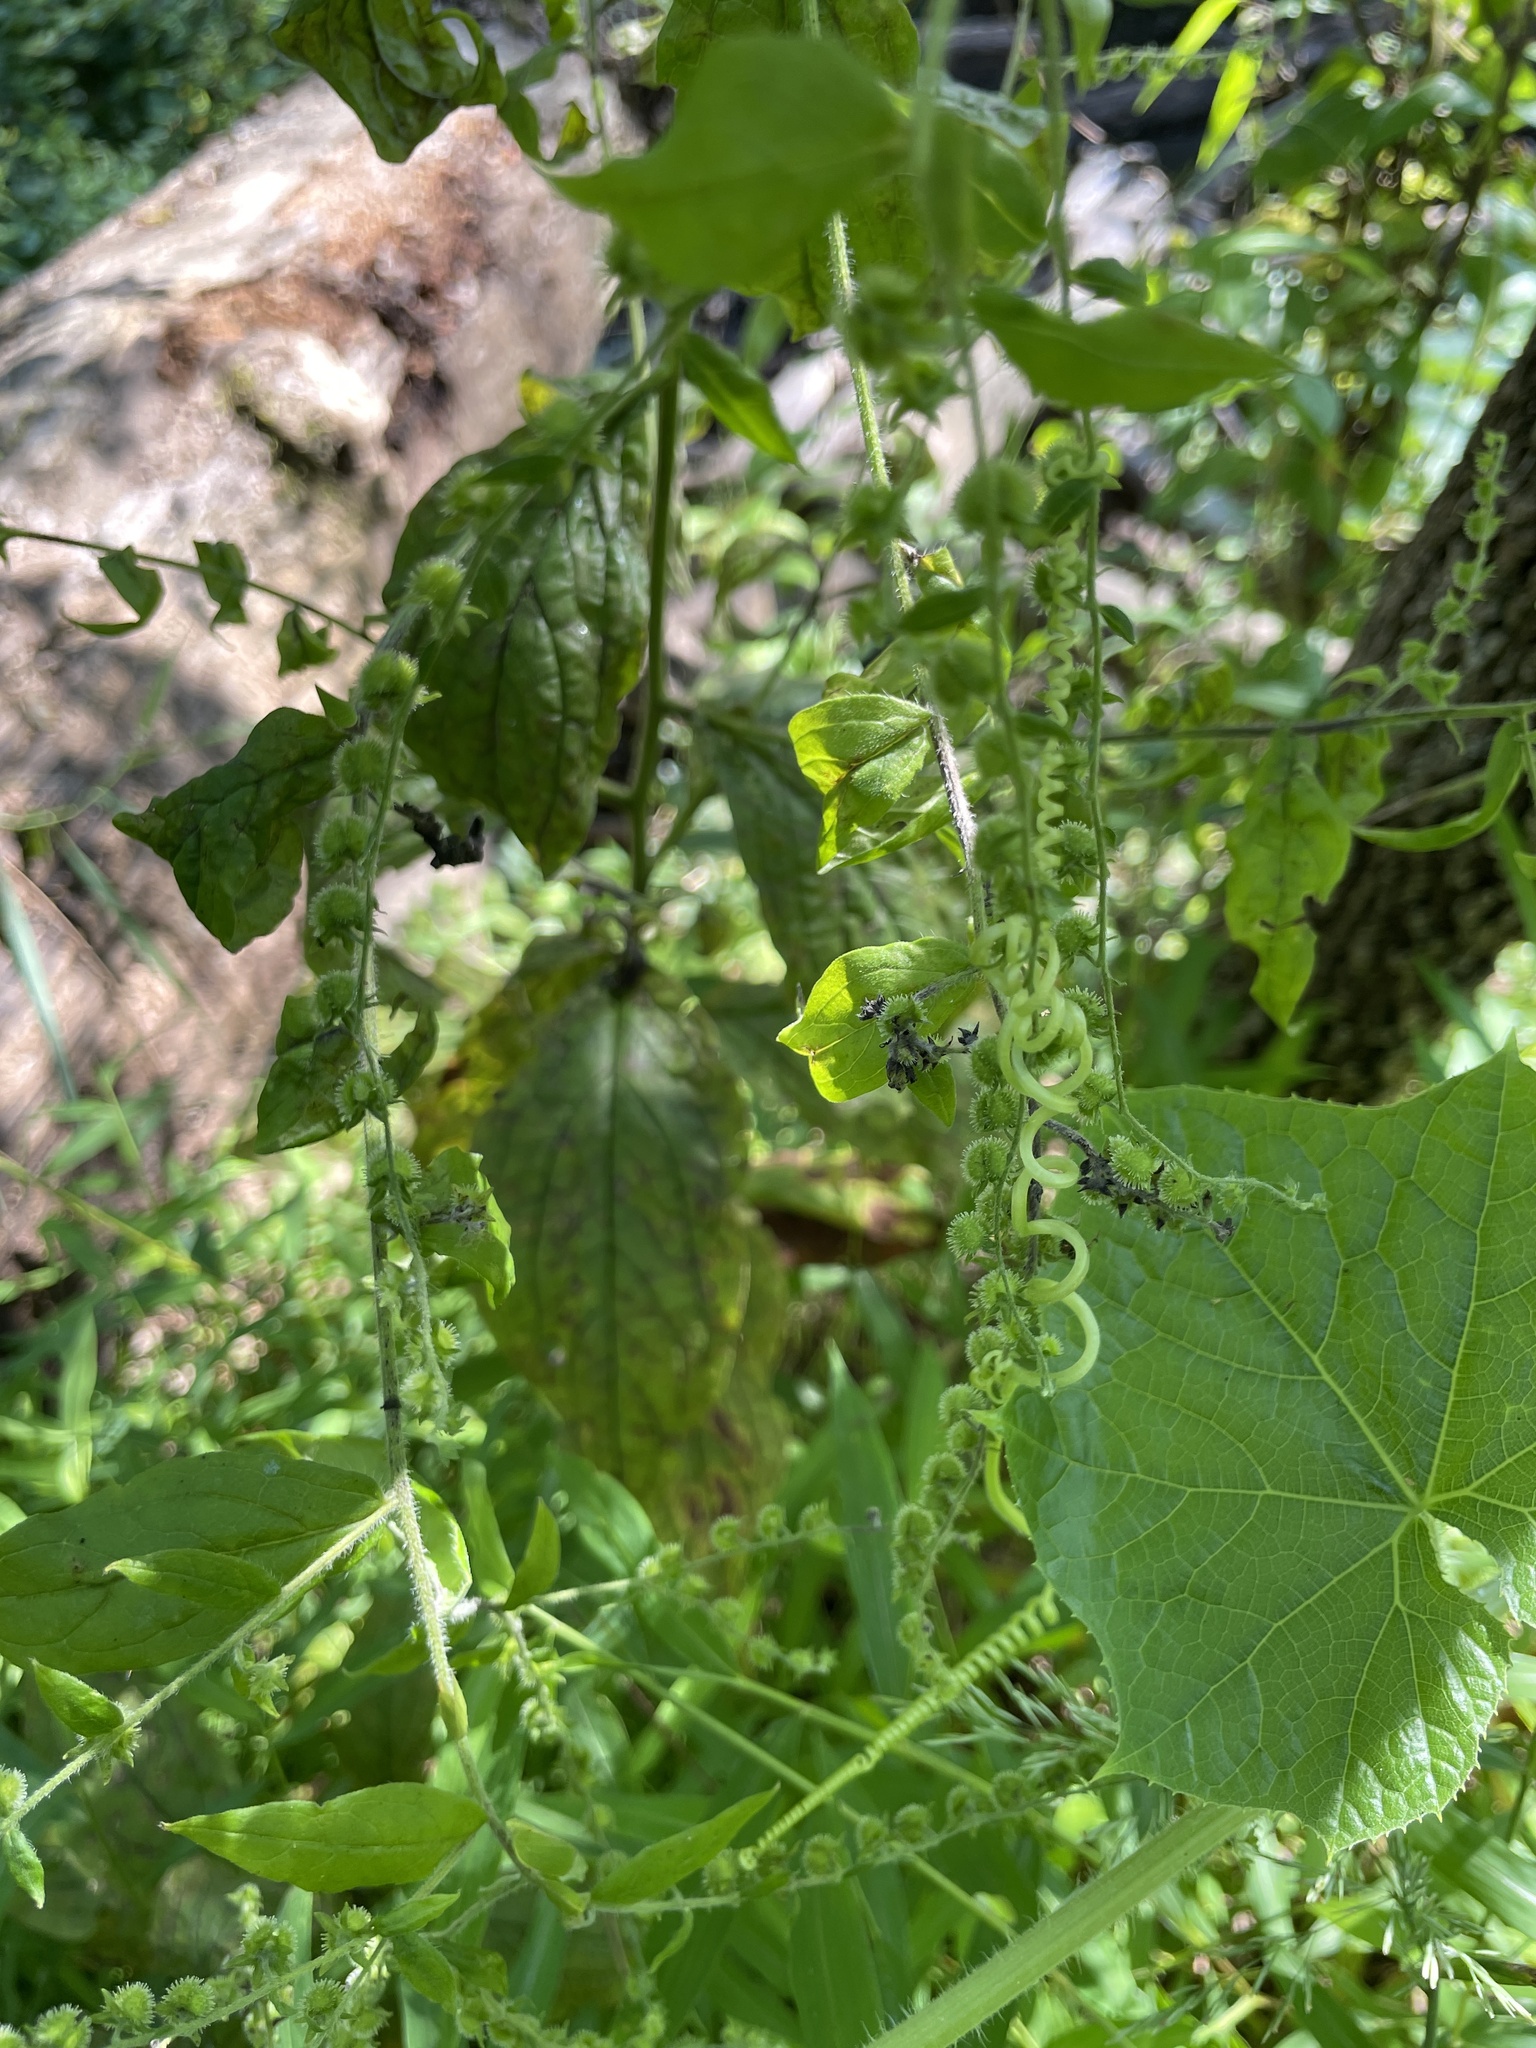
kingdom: Plantae
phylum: Tracheophyta
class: Magnoliopsida
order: Boraginales
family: Boraginaceae
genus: Hackelia
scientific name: Hackelia virginiana
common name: Beggar's-lice
